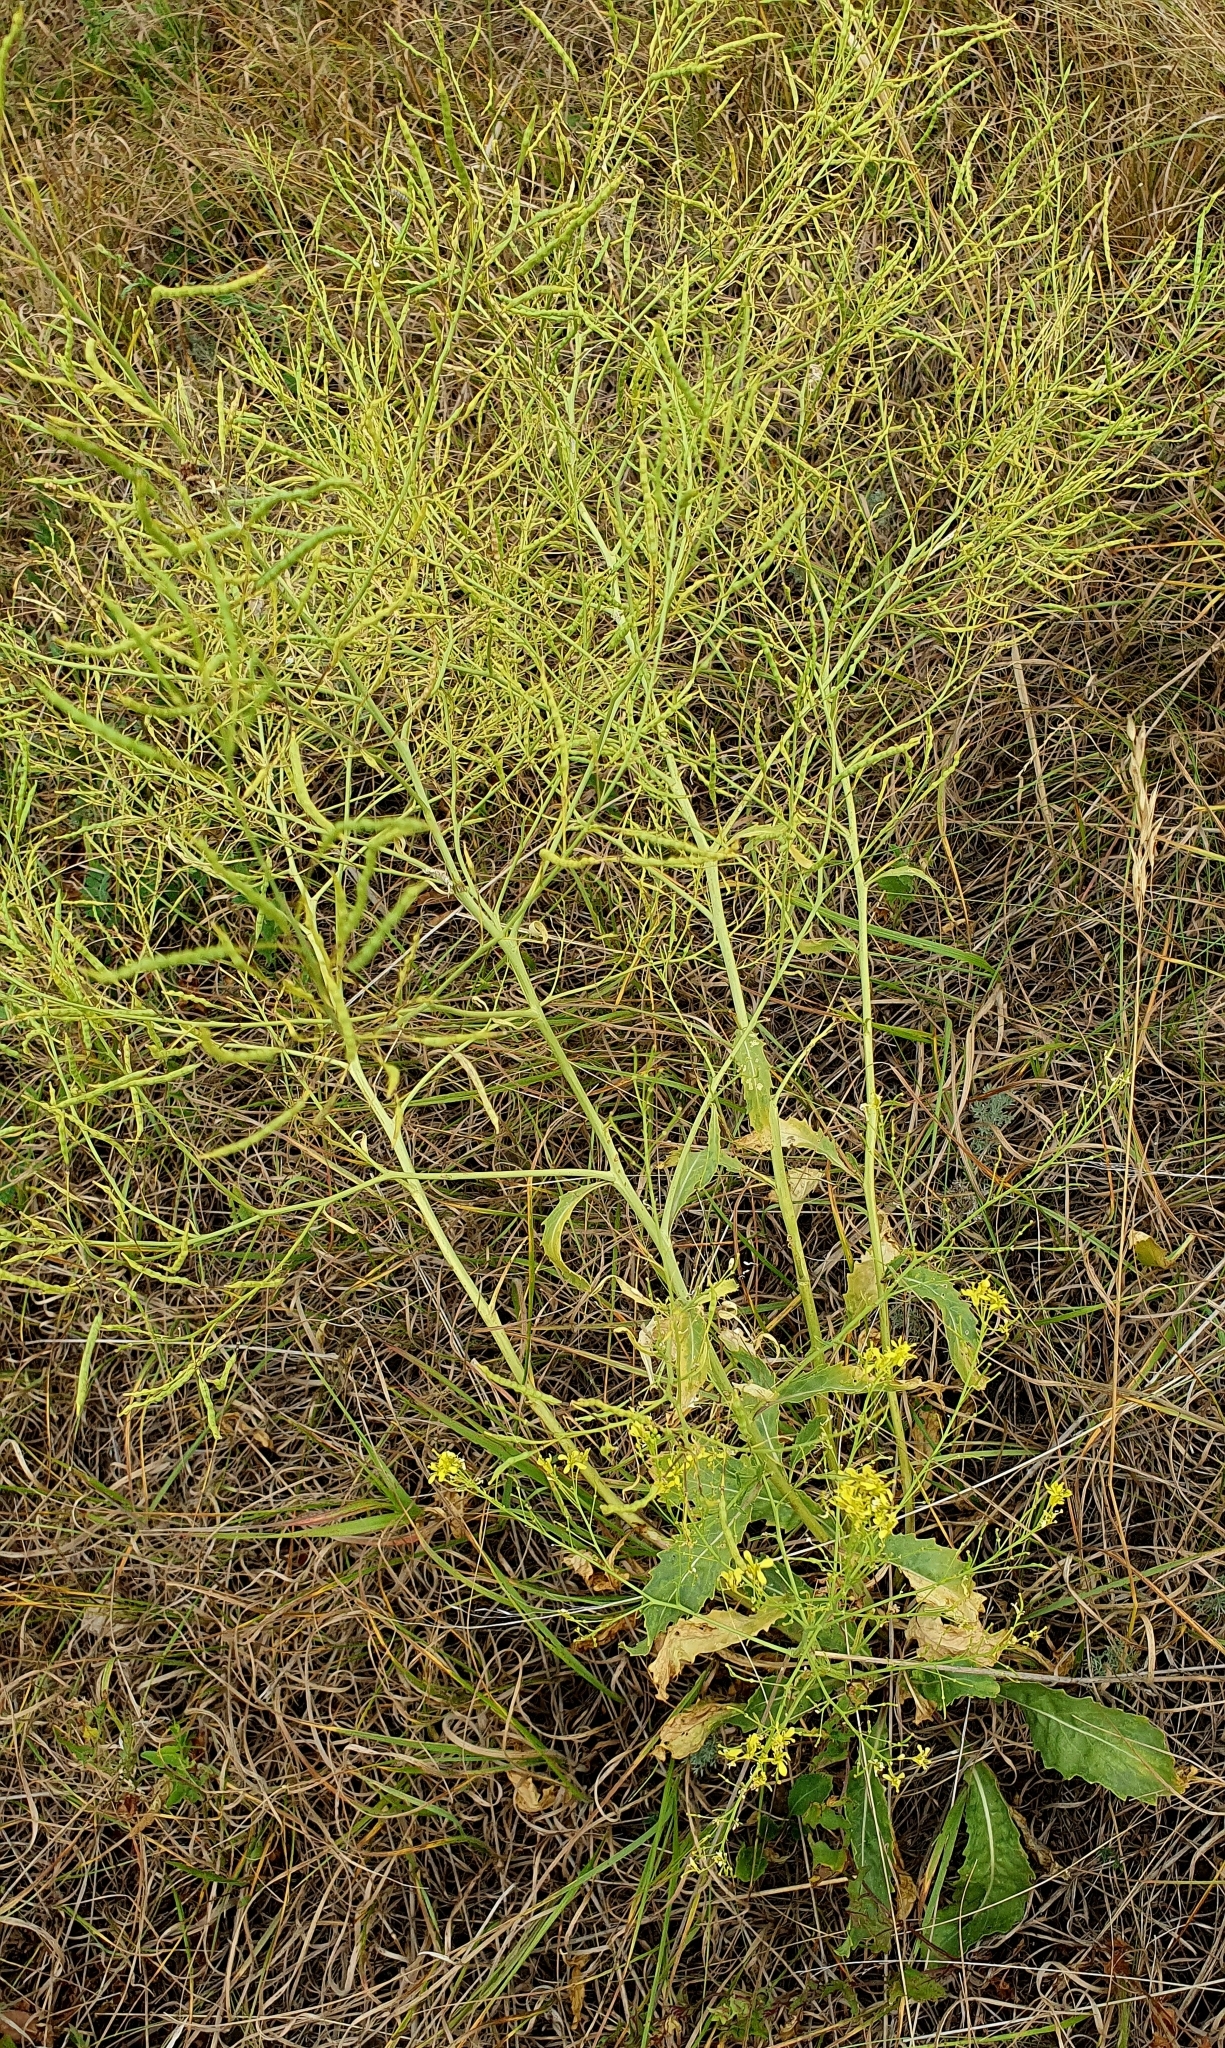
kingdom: Plantae
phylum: Tracheophyta
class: Magnoliopsida
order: Brassicales
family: Brassicaceae
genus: Brassica
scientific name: Brassica elongata
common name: Long-stalked rape
